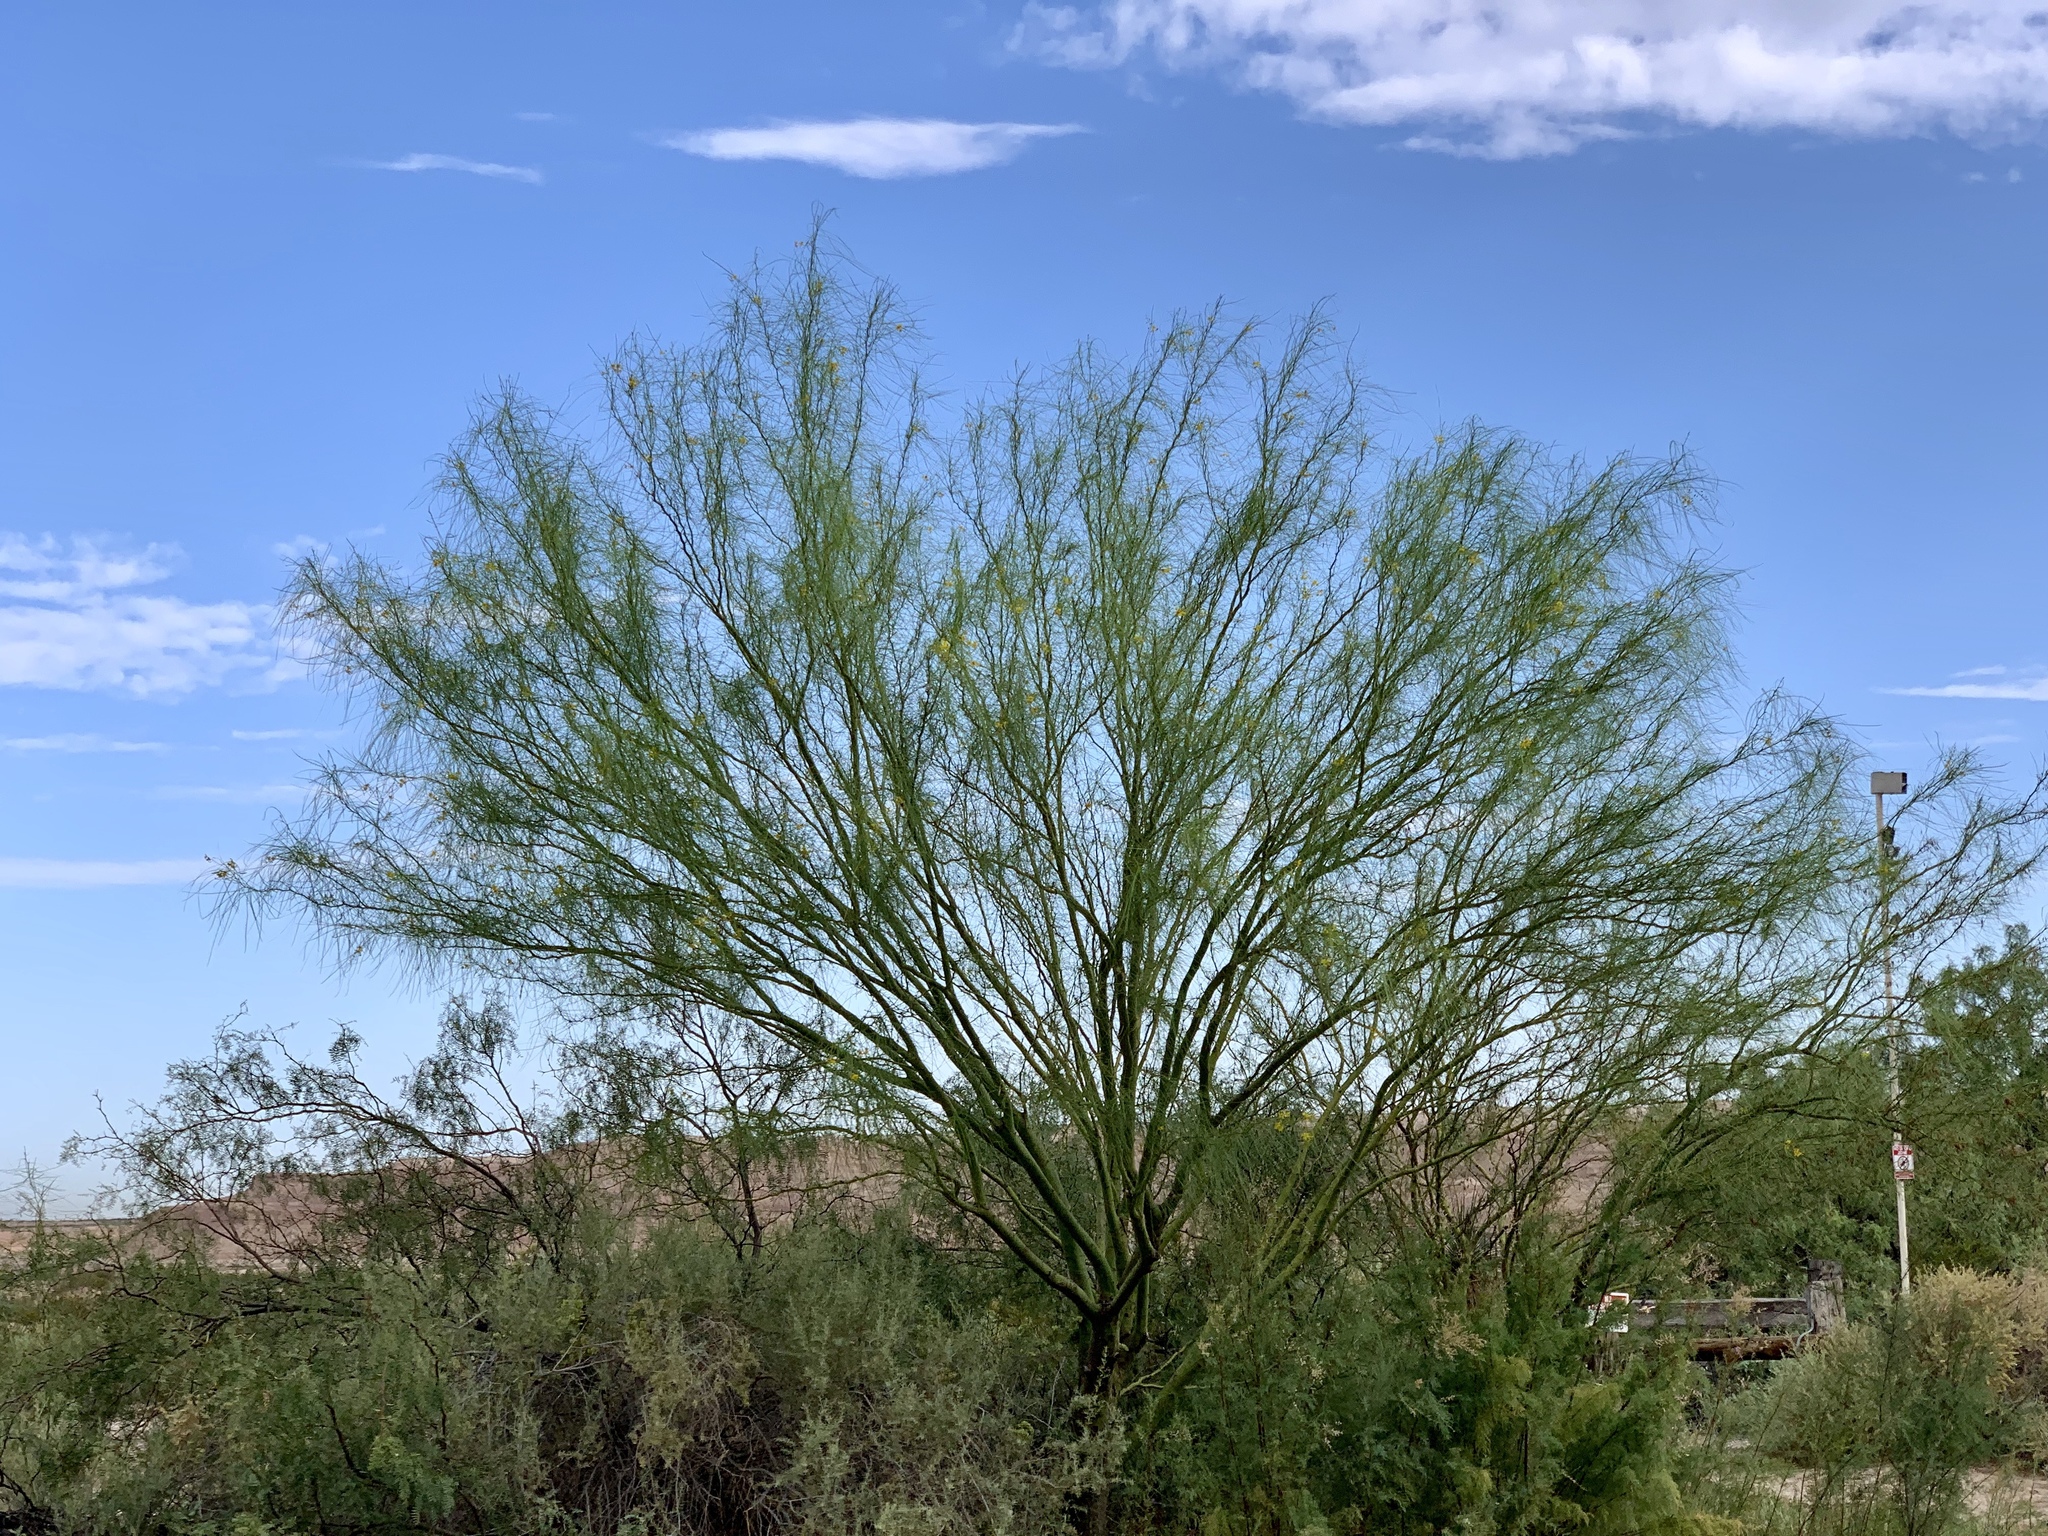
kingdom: Plantae
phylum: Tracheophyta
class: Magnoliopsida
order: Fabales
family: Fabaceae
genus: Parkinsonia
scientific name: Parkinsonia aculeata
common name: Jerusalem thorn
